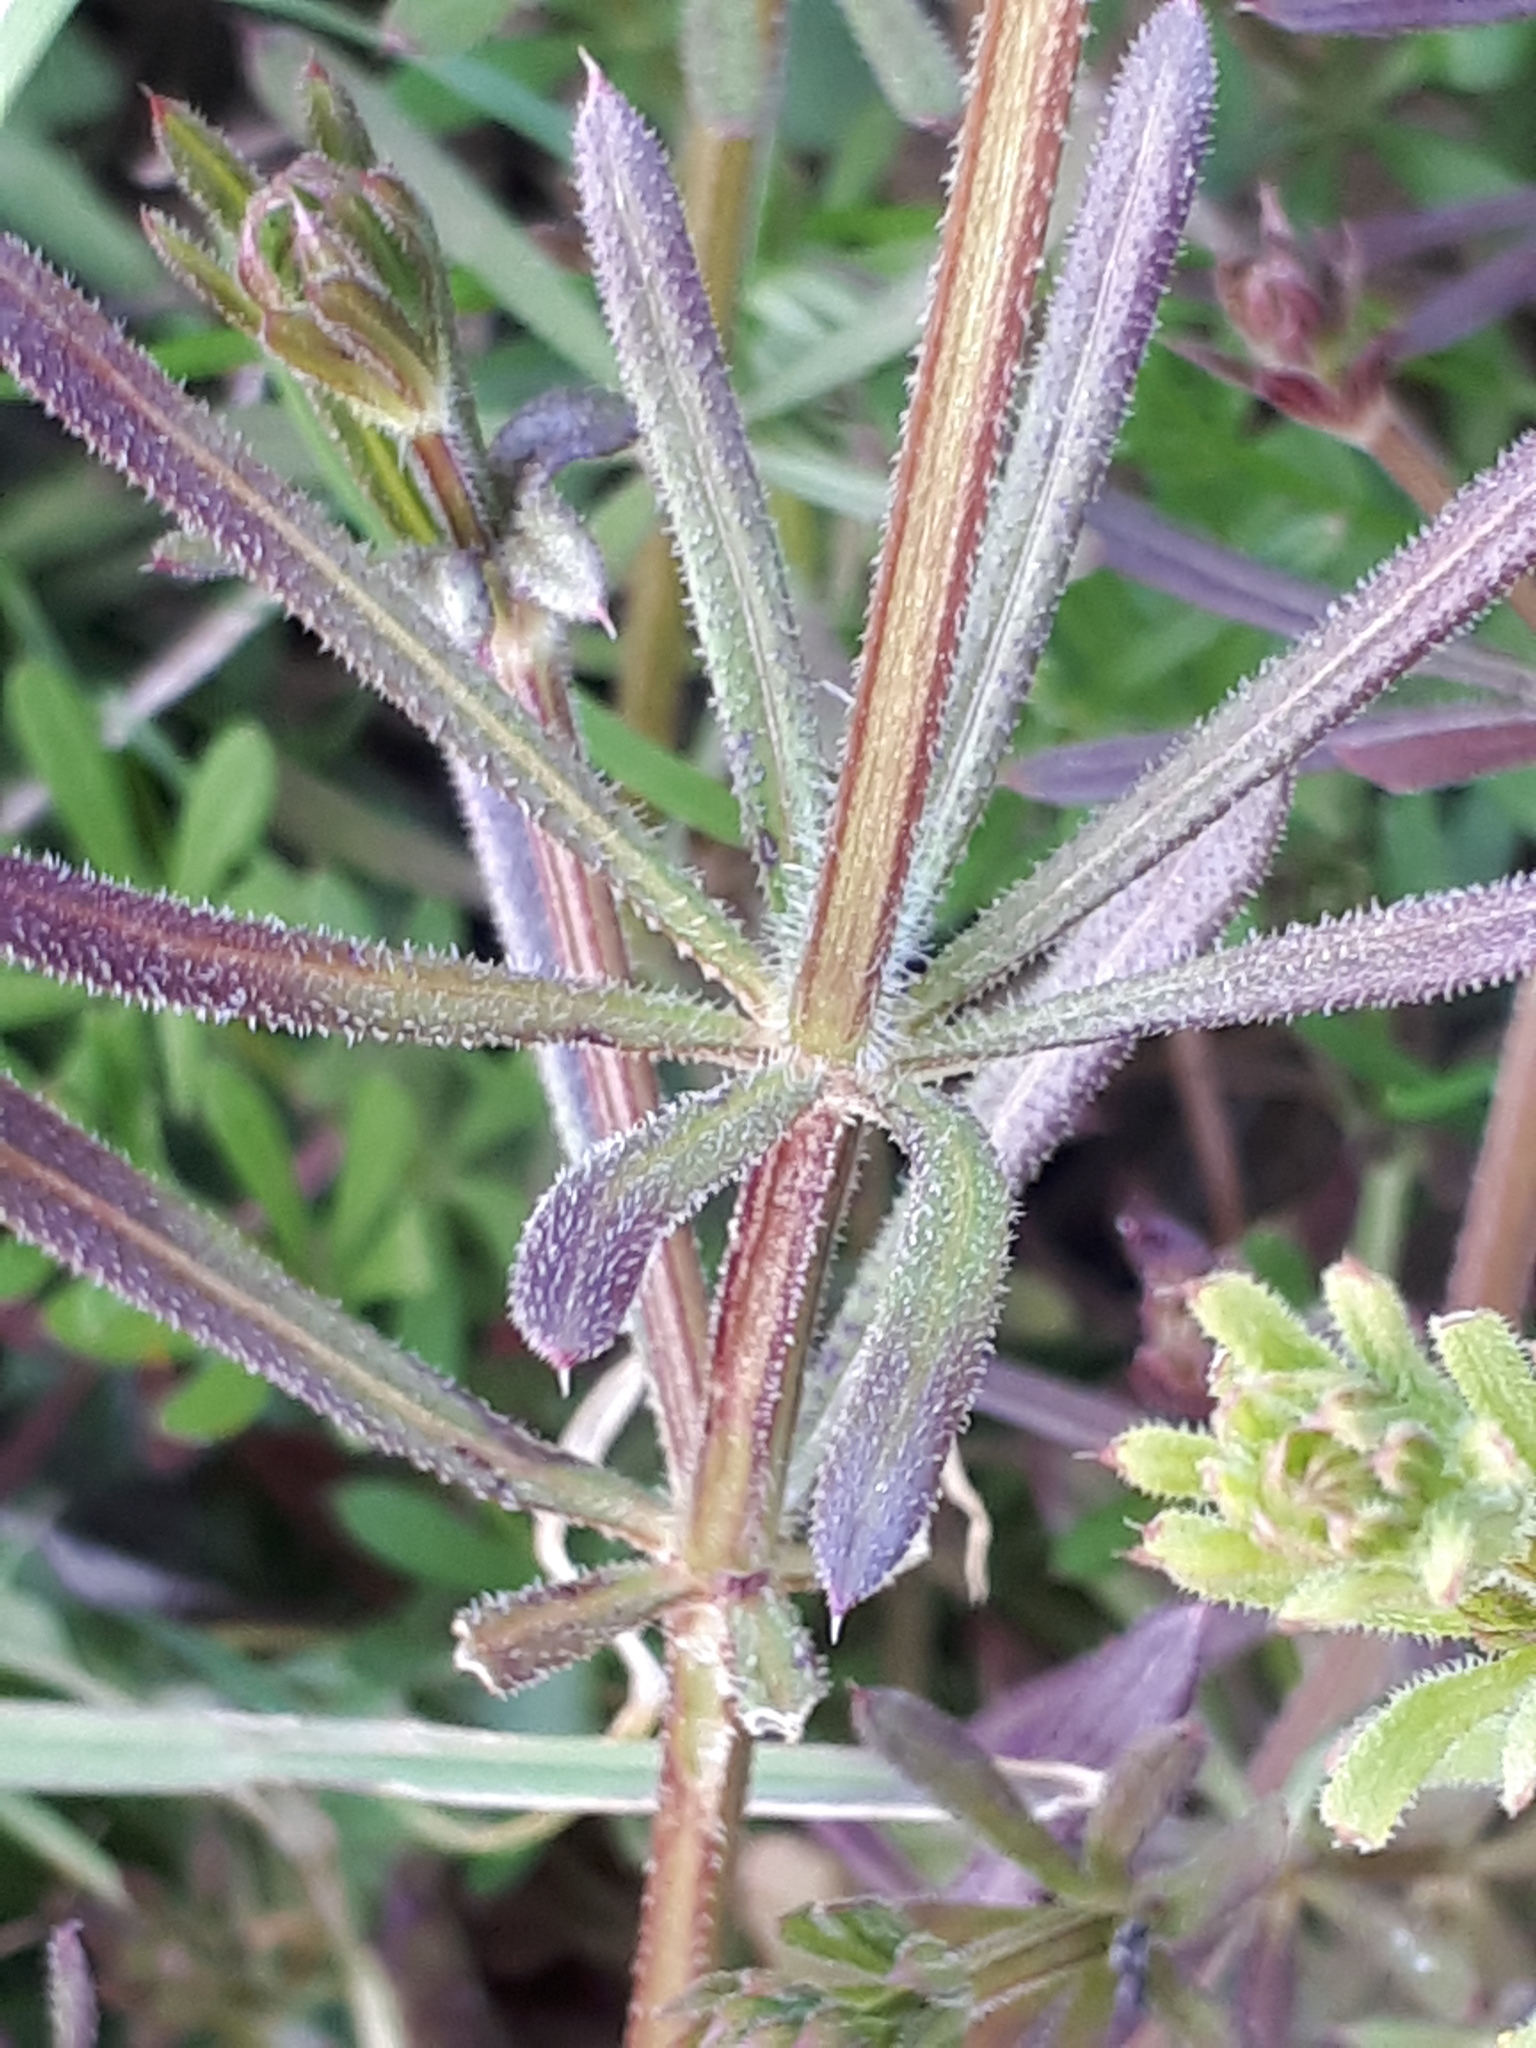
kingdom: Plantae
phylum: Tracheophyta
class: Magnoliopsida
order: Gentianales
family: Rubiaceae
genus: Galium
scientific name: Galium aparine
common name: Cleavers
